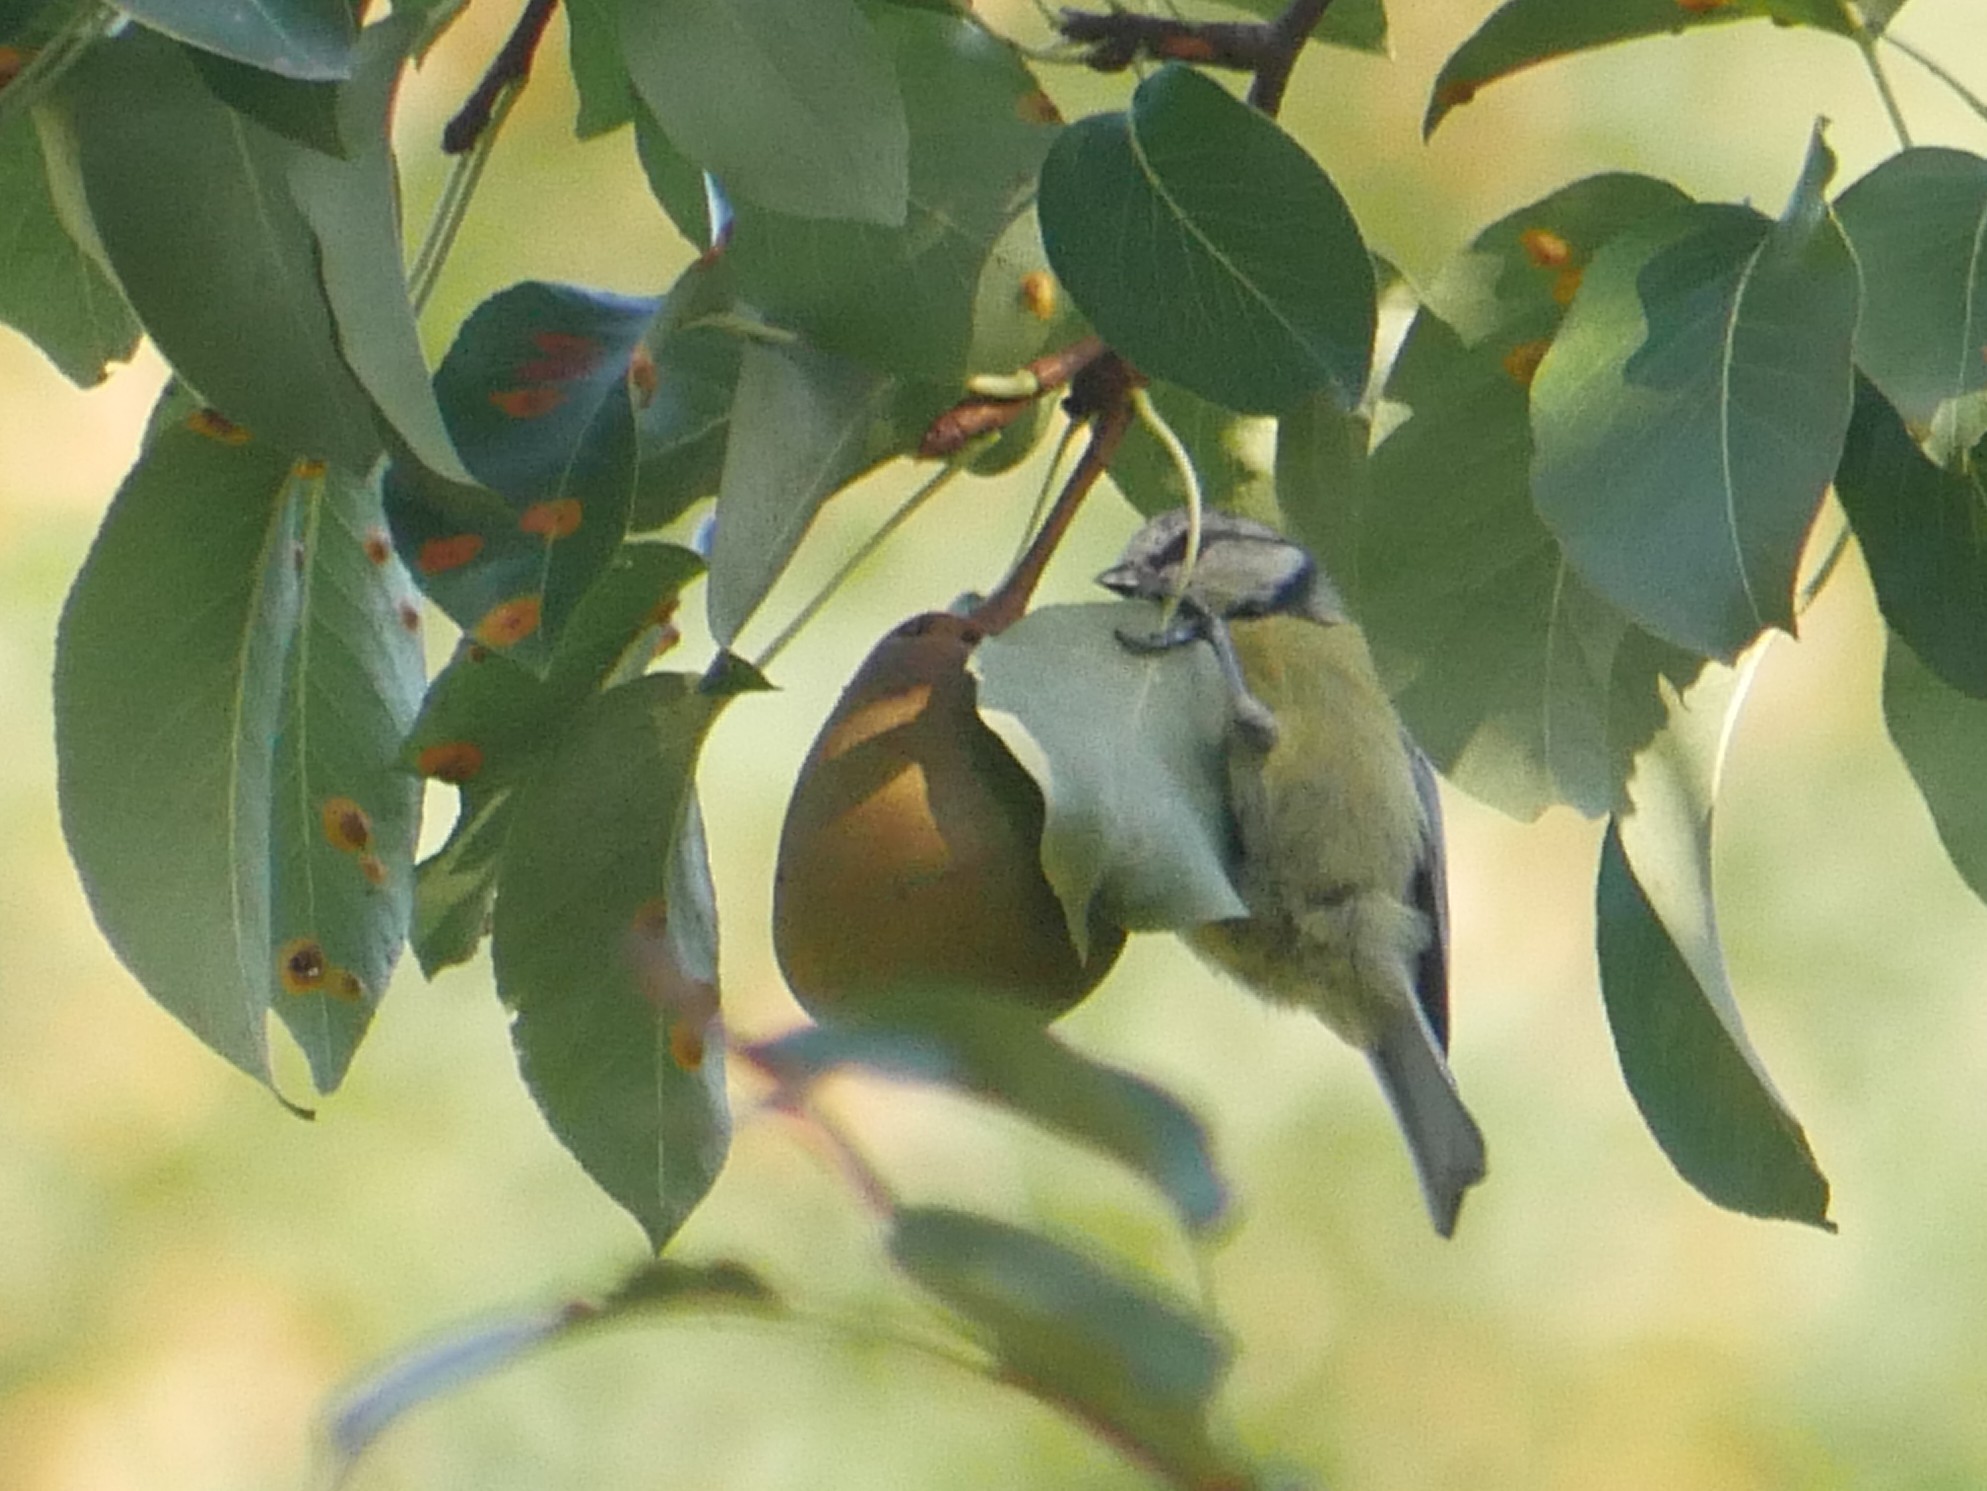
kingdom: Animalia
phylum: Chordata
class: Aves
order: Passeriformes
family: Paridae
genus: Cyanistes
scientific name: Cyanistes caeruleus
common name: Eurasian blue tit
